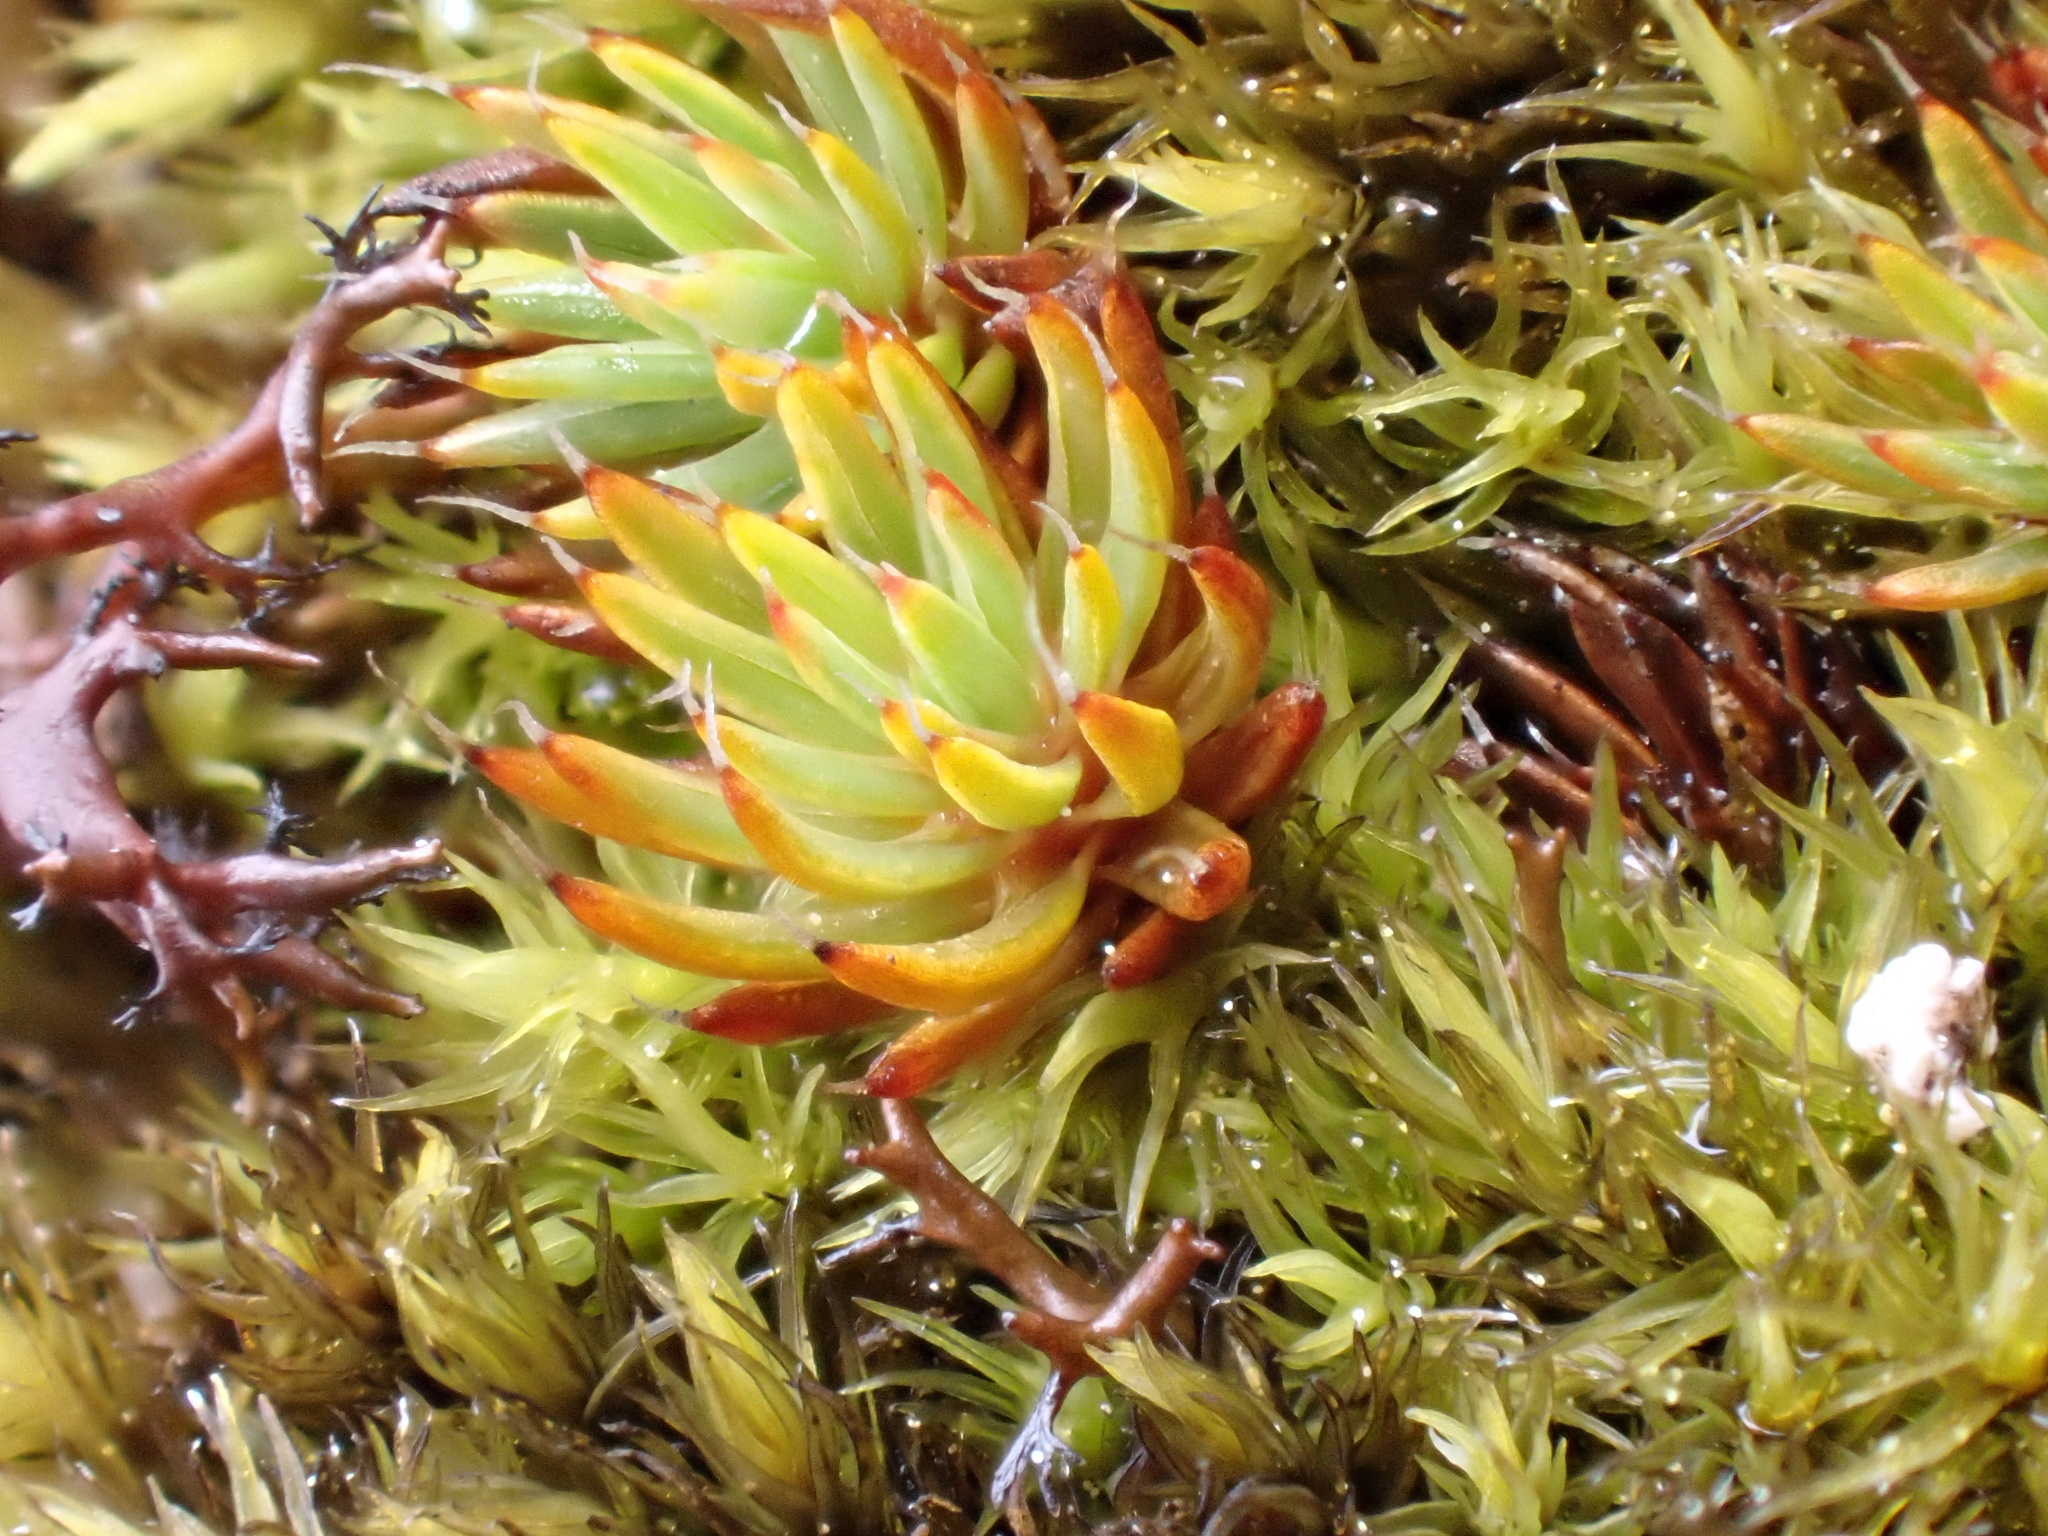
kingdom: Plantae
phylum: Bryophyta
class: Polytrichopsida
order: Polytrichales
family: Polytrichaceae
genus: Polytrichum
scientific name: Polytrichum piliferum
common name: Bristly haircap
